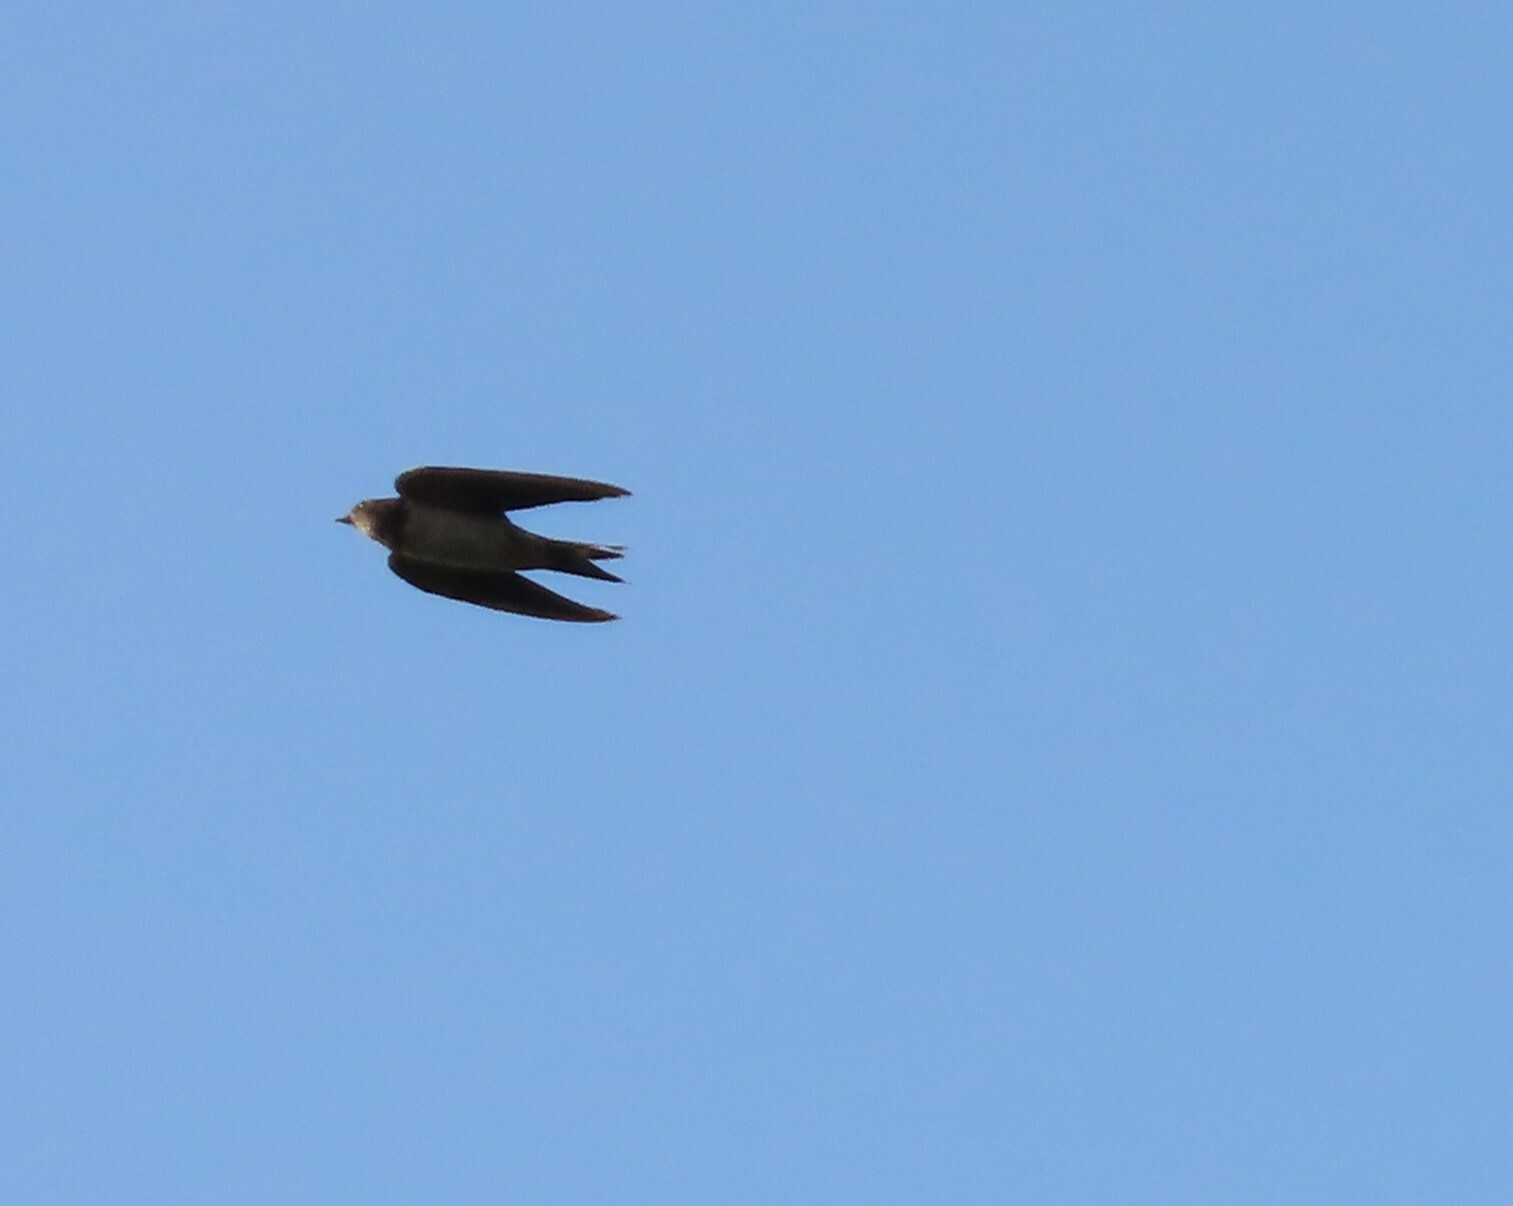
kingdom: Animalia
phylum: Chordata
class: Aves
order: Passeriformes
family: Hirundinidae
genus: Hirundo
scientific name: Hirundo rustica
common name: Barn swallow
